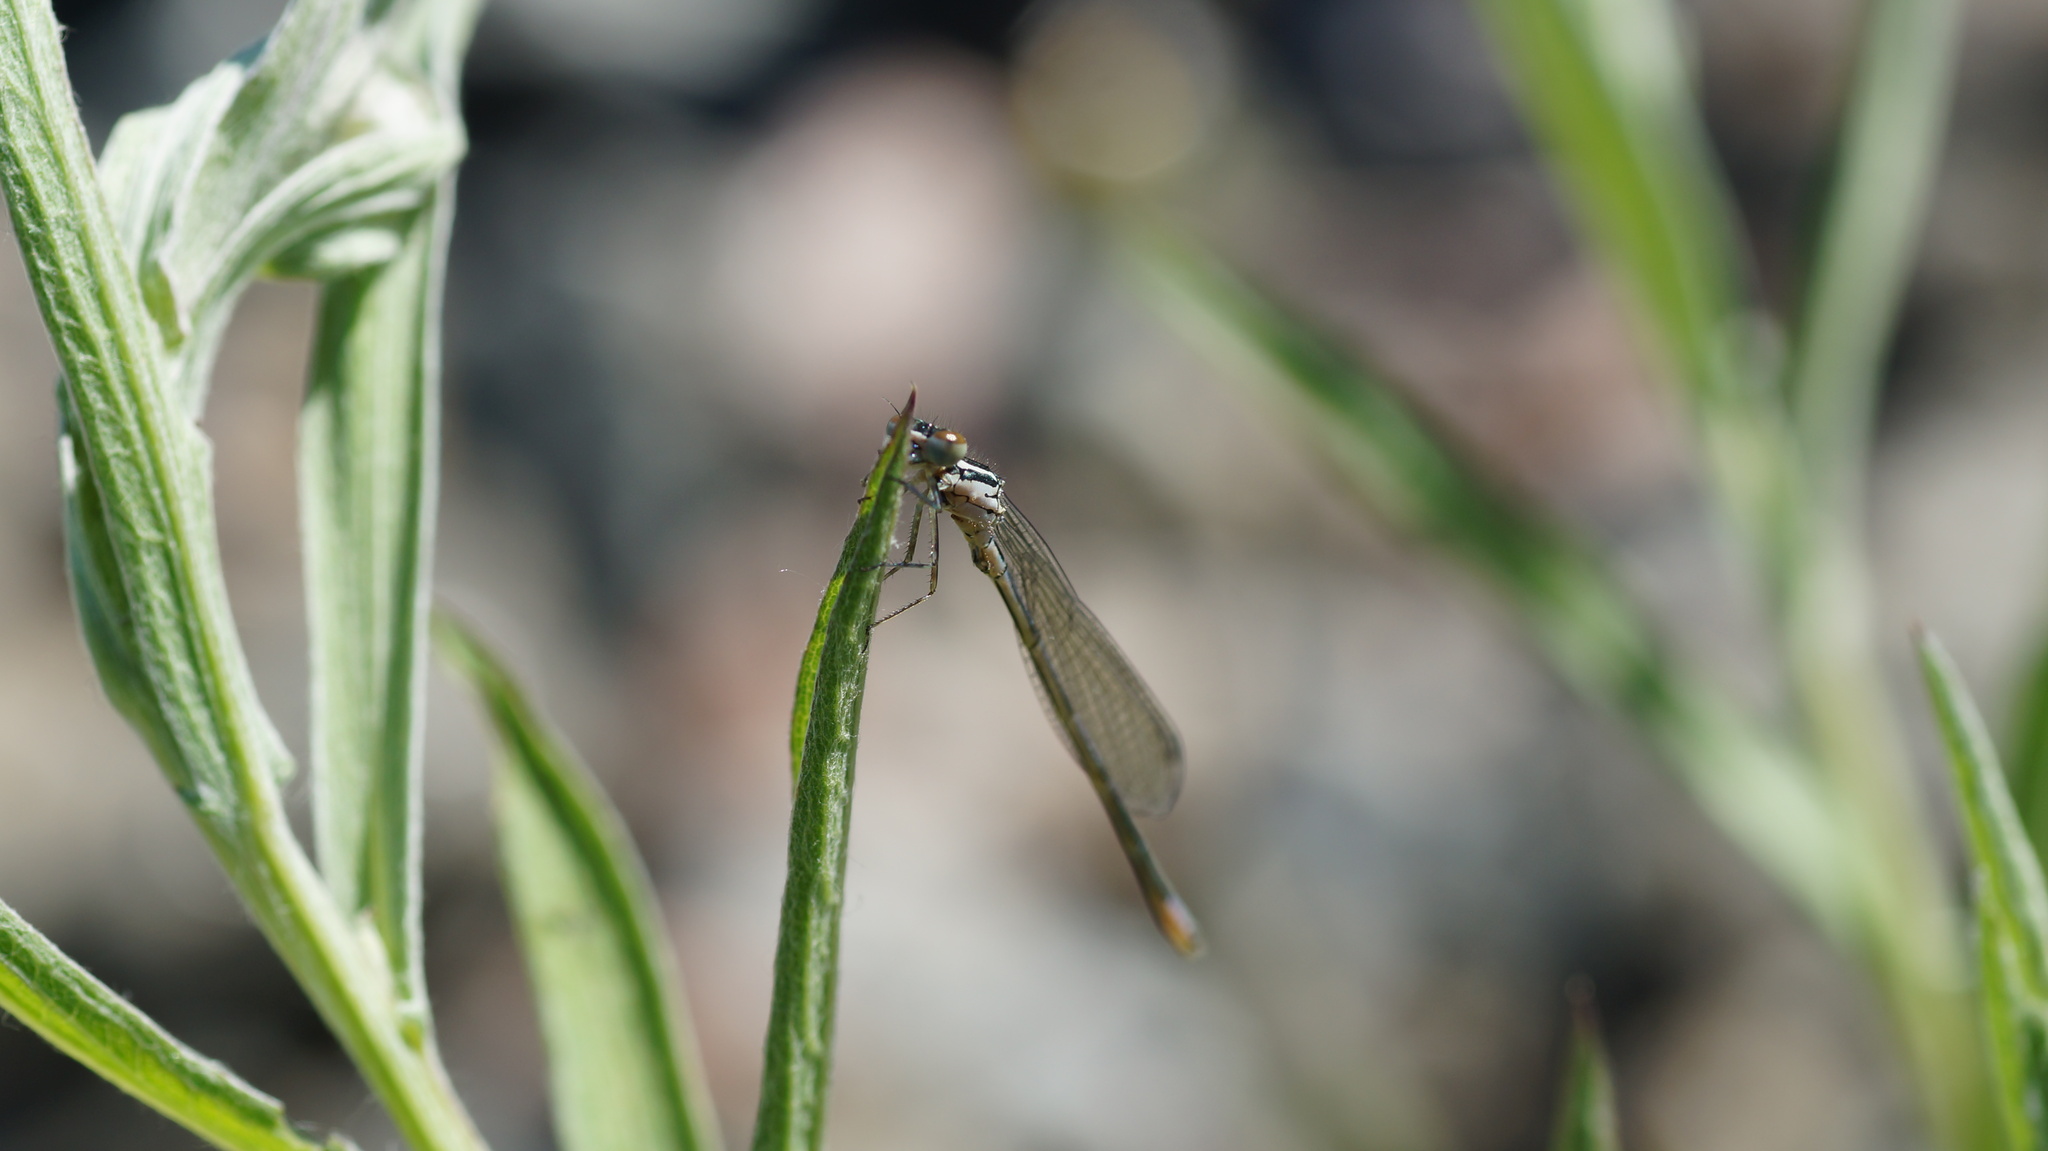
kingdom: Animalia
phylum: Arthropoda
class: Insecta
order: Odonata
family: Coenagrionidae
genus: Coenagrion
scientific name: Coenagrion puella
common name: Azure damselfly
